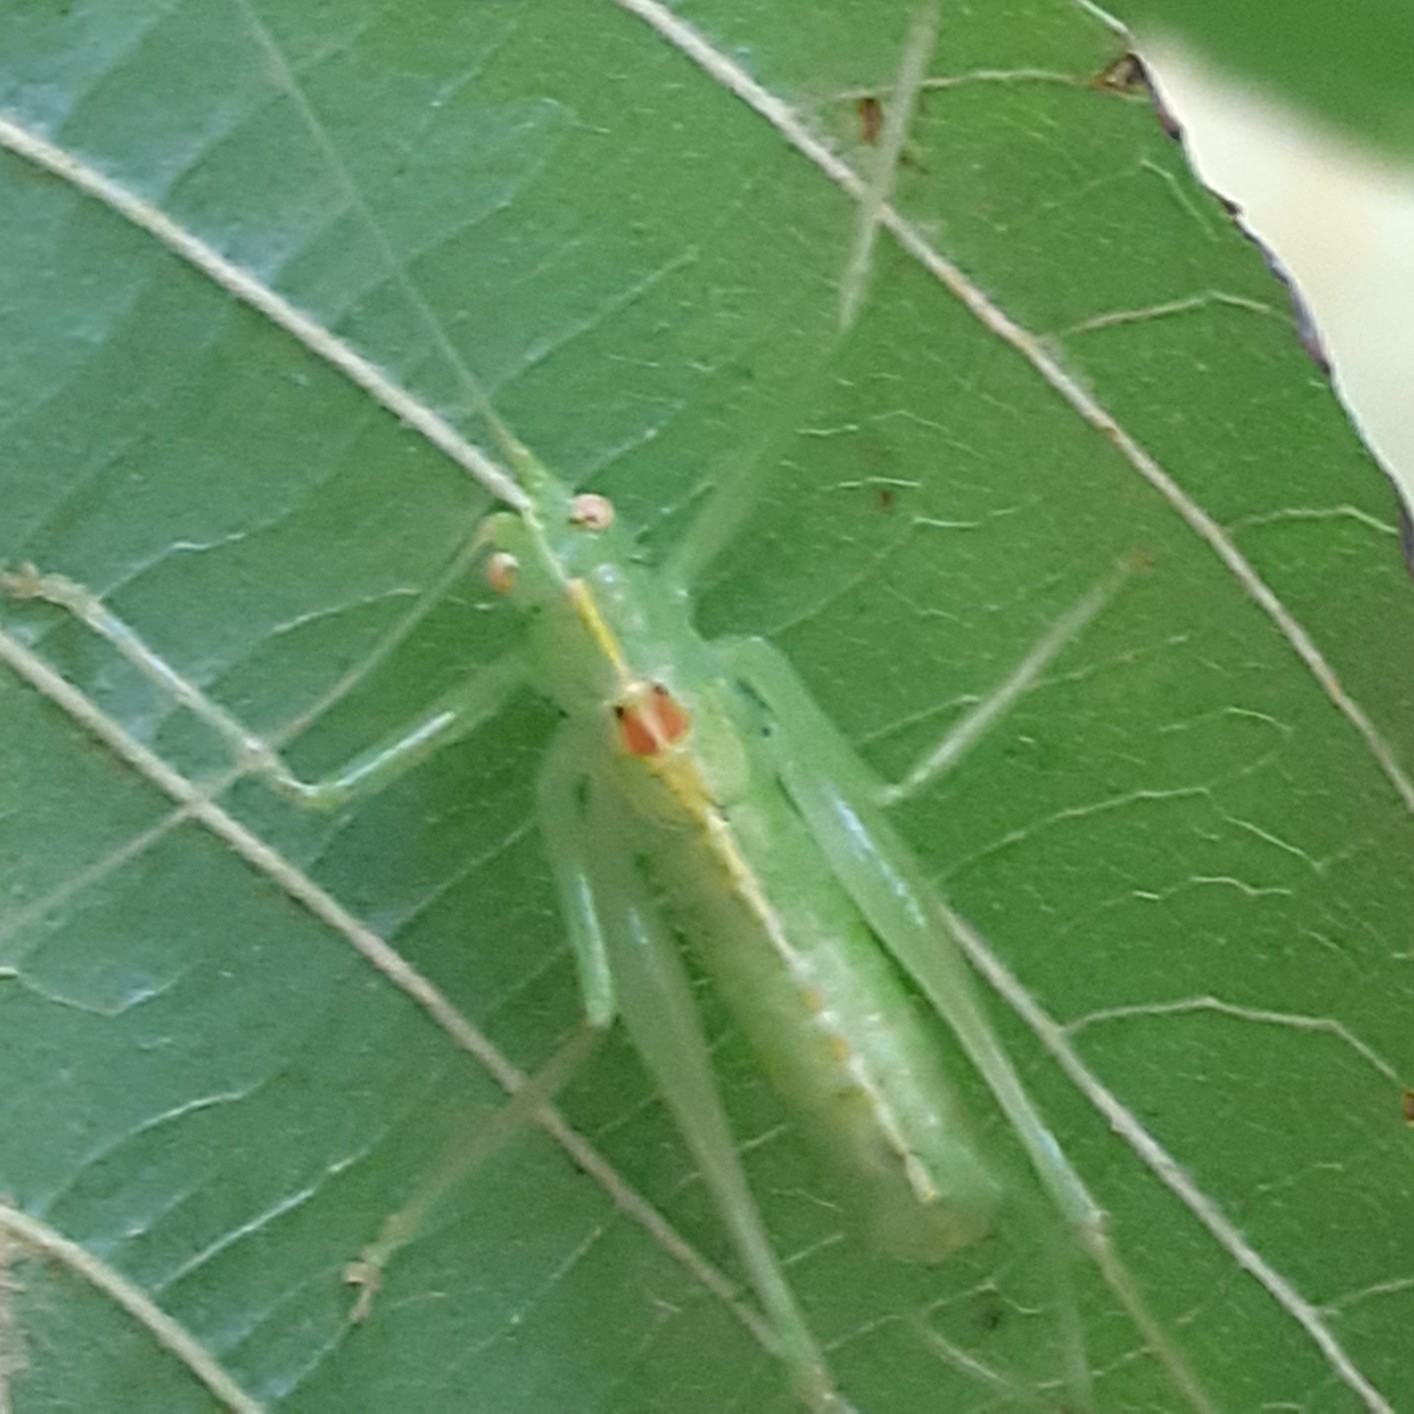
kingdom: Animalia
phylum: Arthropoda
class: Insecta
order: Orthoptera
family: Tettigoniidae
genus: Meconema
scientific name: Meconema meridionale
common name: Southern oak bush-cricket
